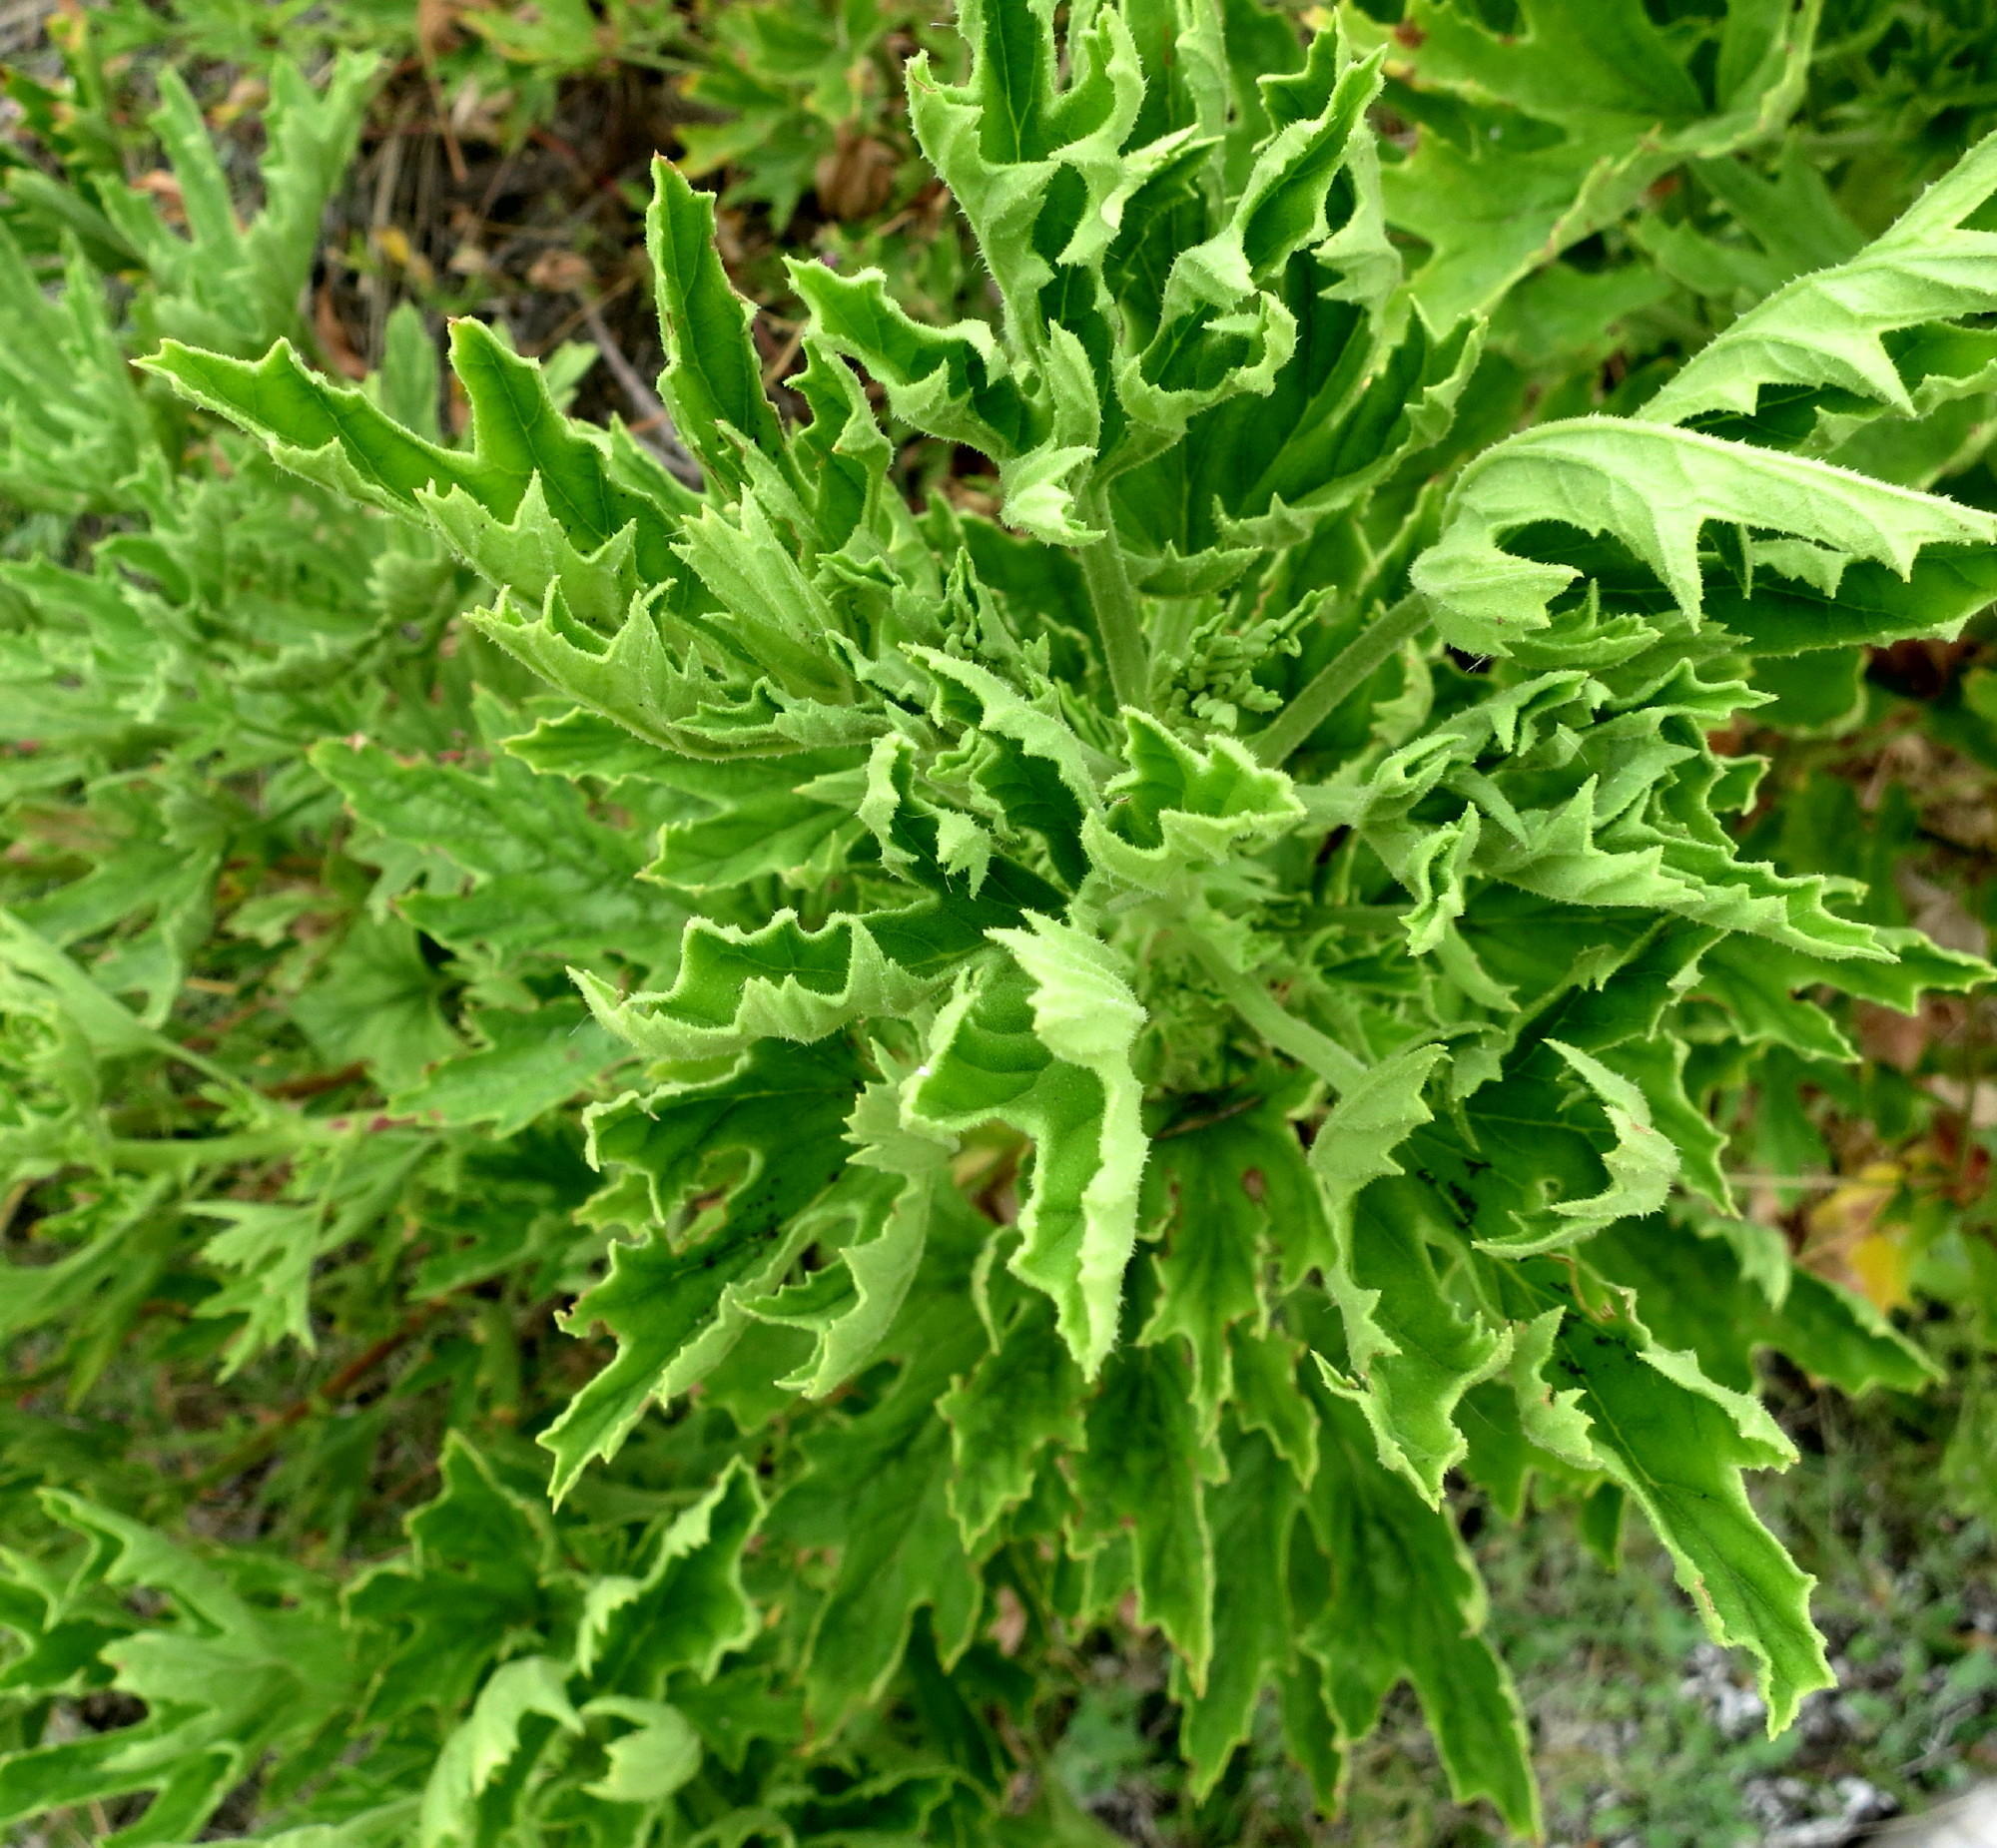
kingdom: Plantae
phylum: Tracheophyta
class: Magnoliopsida
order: Geraniales
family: Geraniaceae
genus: Pelargonium
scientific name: Pelargonium scabrum
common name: Apricot geranium
